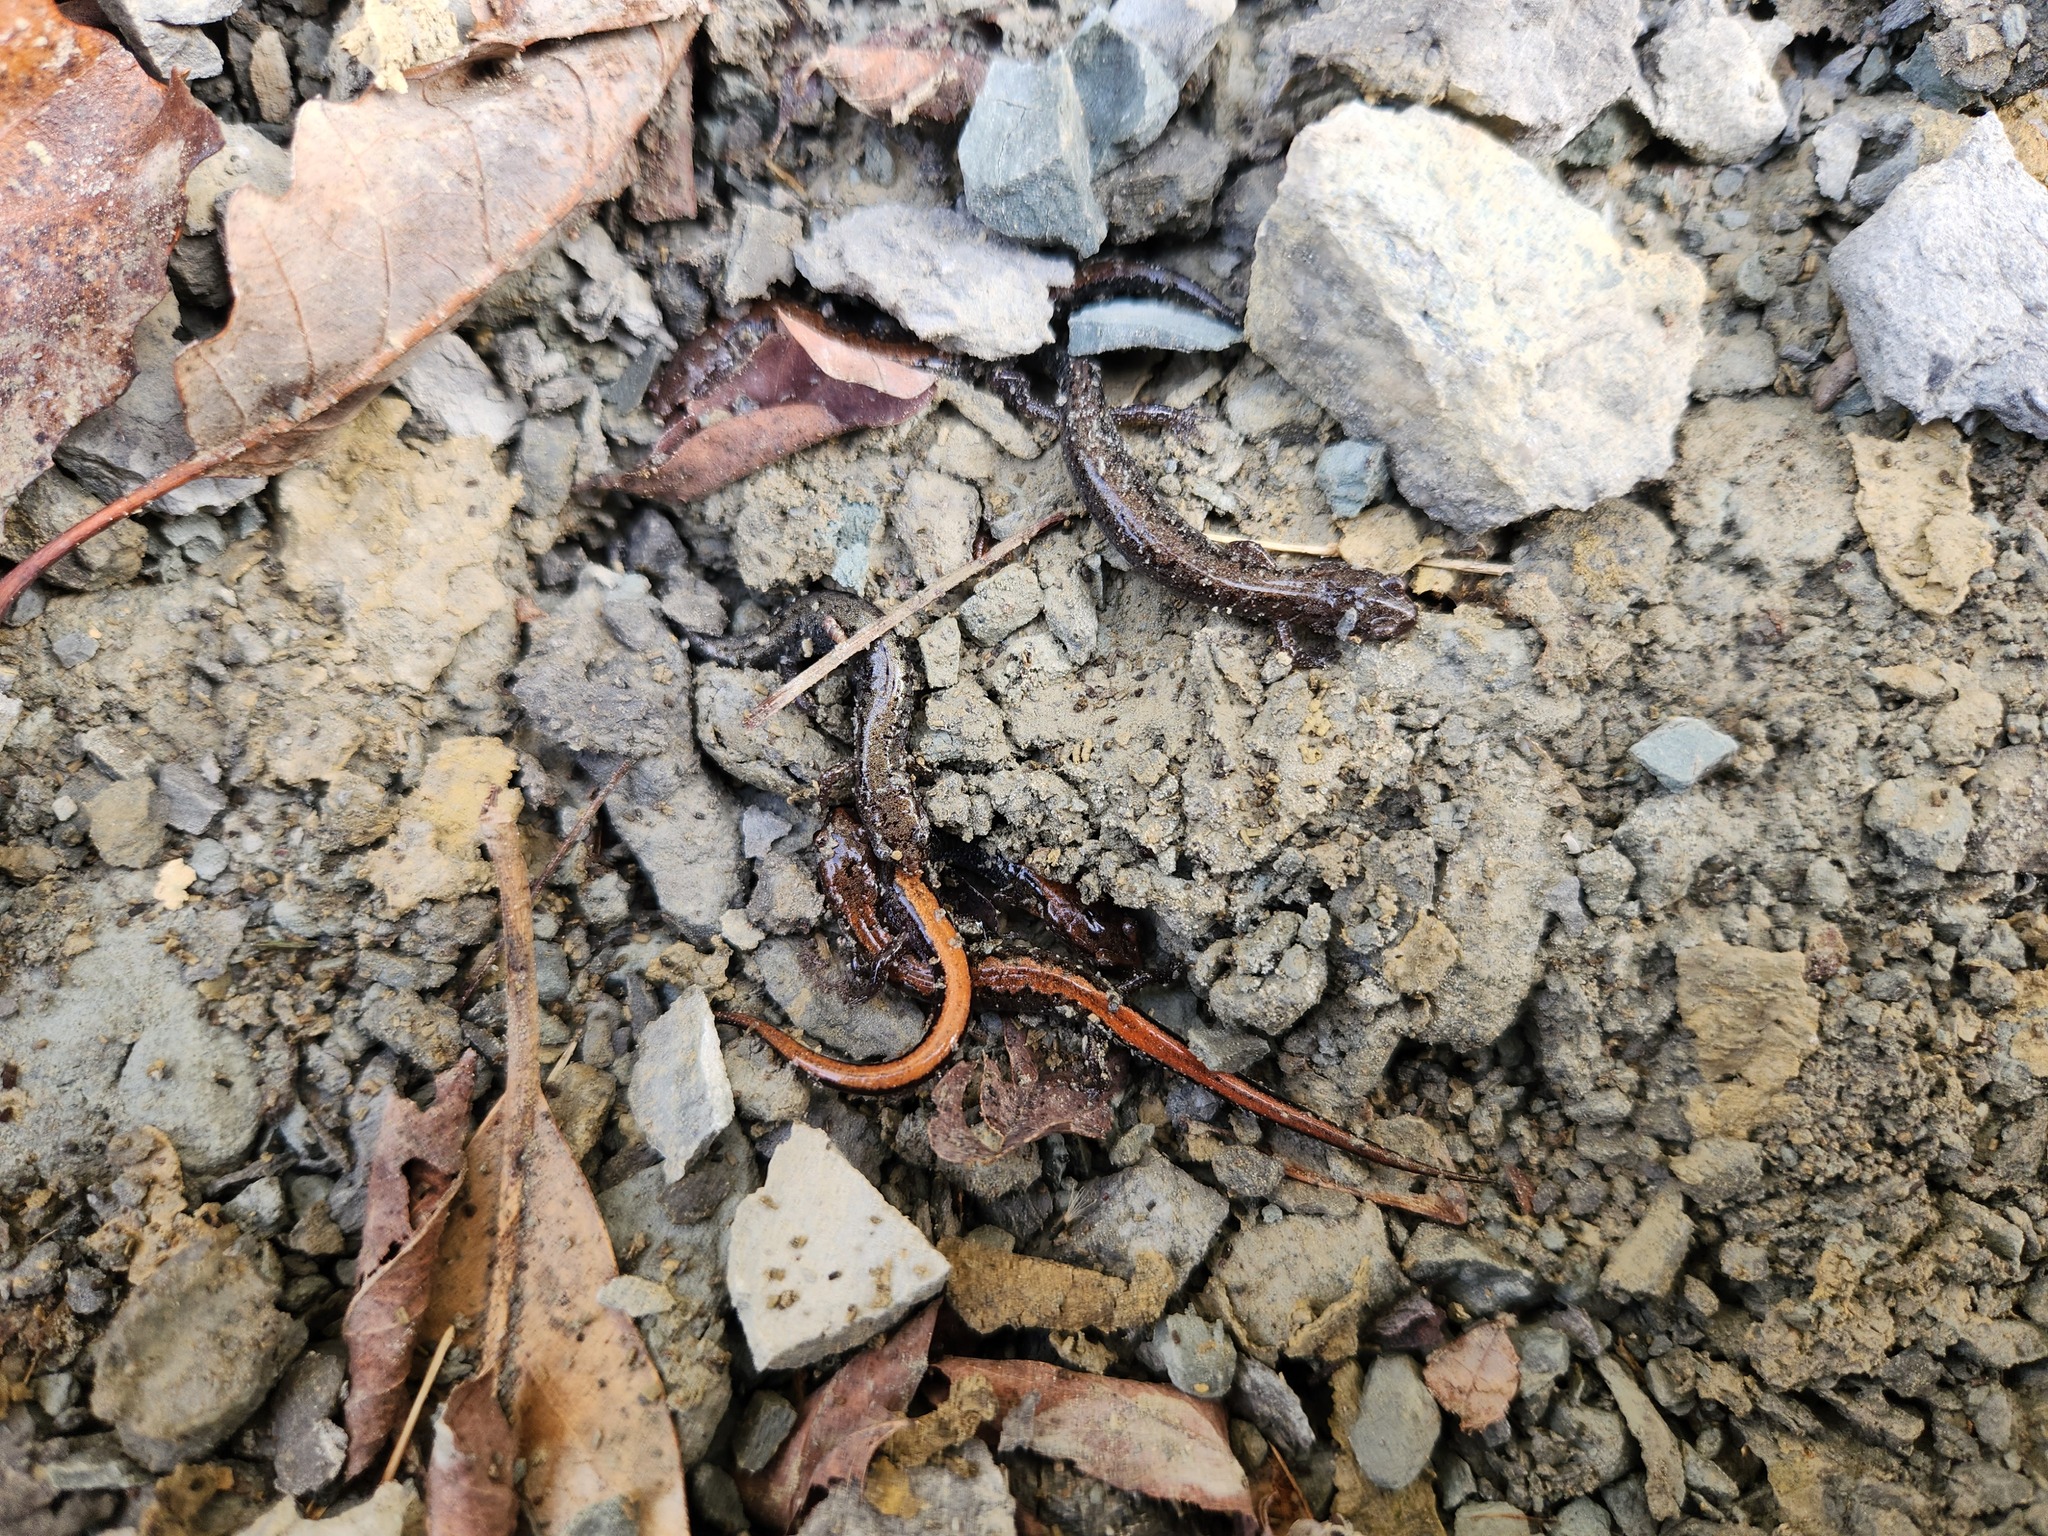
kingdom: Animalia
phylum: Chordata
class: Amphibia
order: Caudata
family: Plethodontidae
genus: Plethodon
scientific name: Plethodon dorsalis
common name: Northern zigzag salamander
